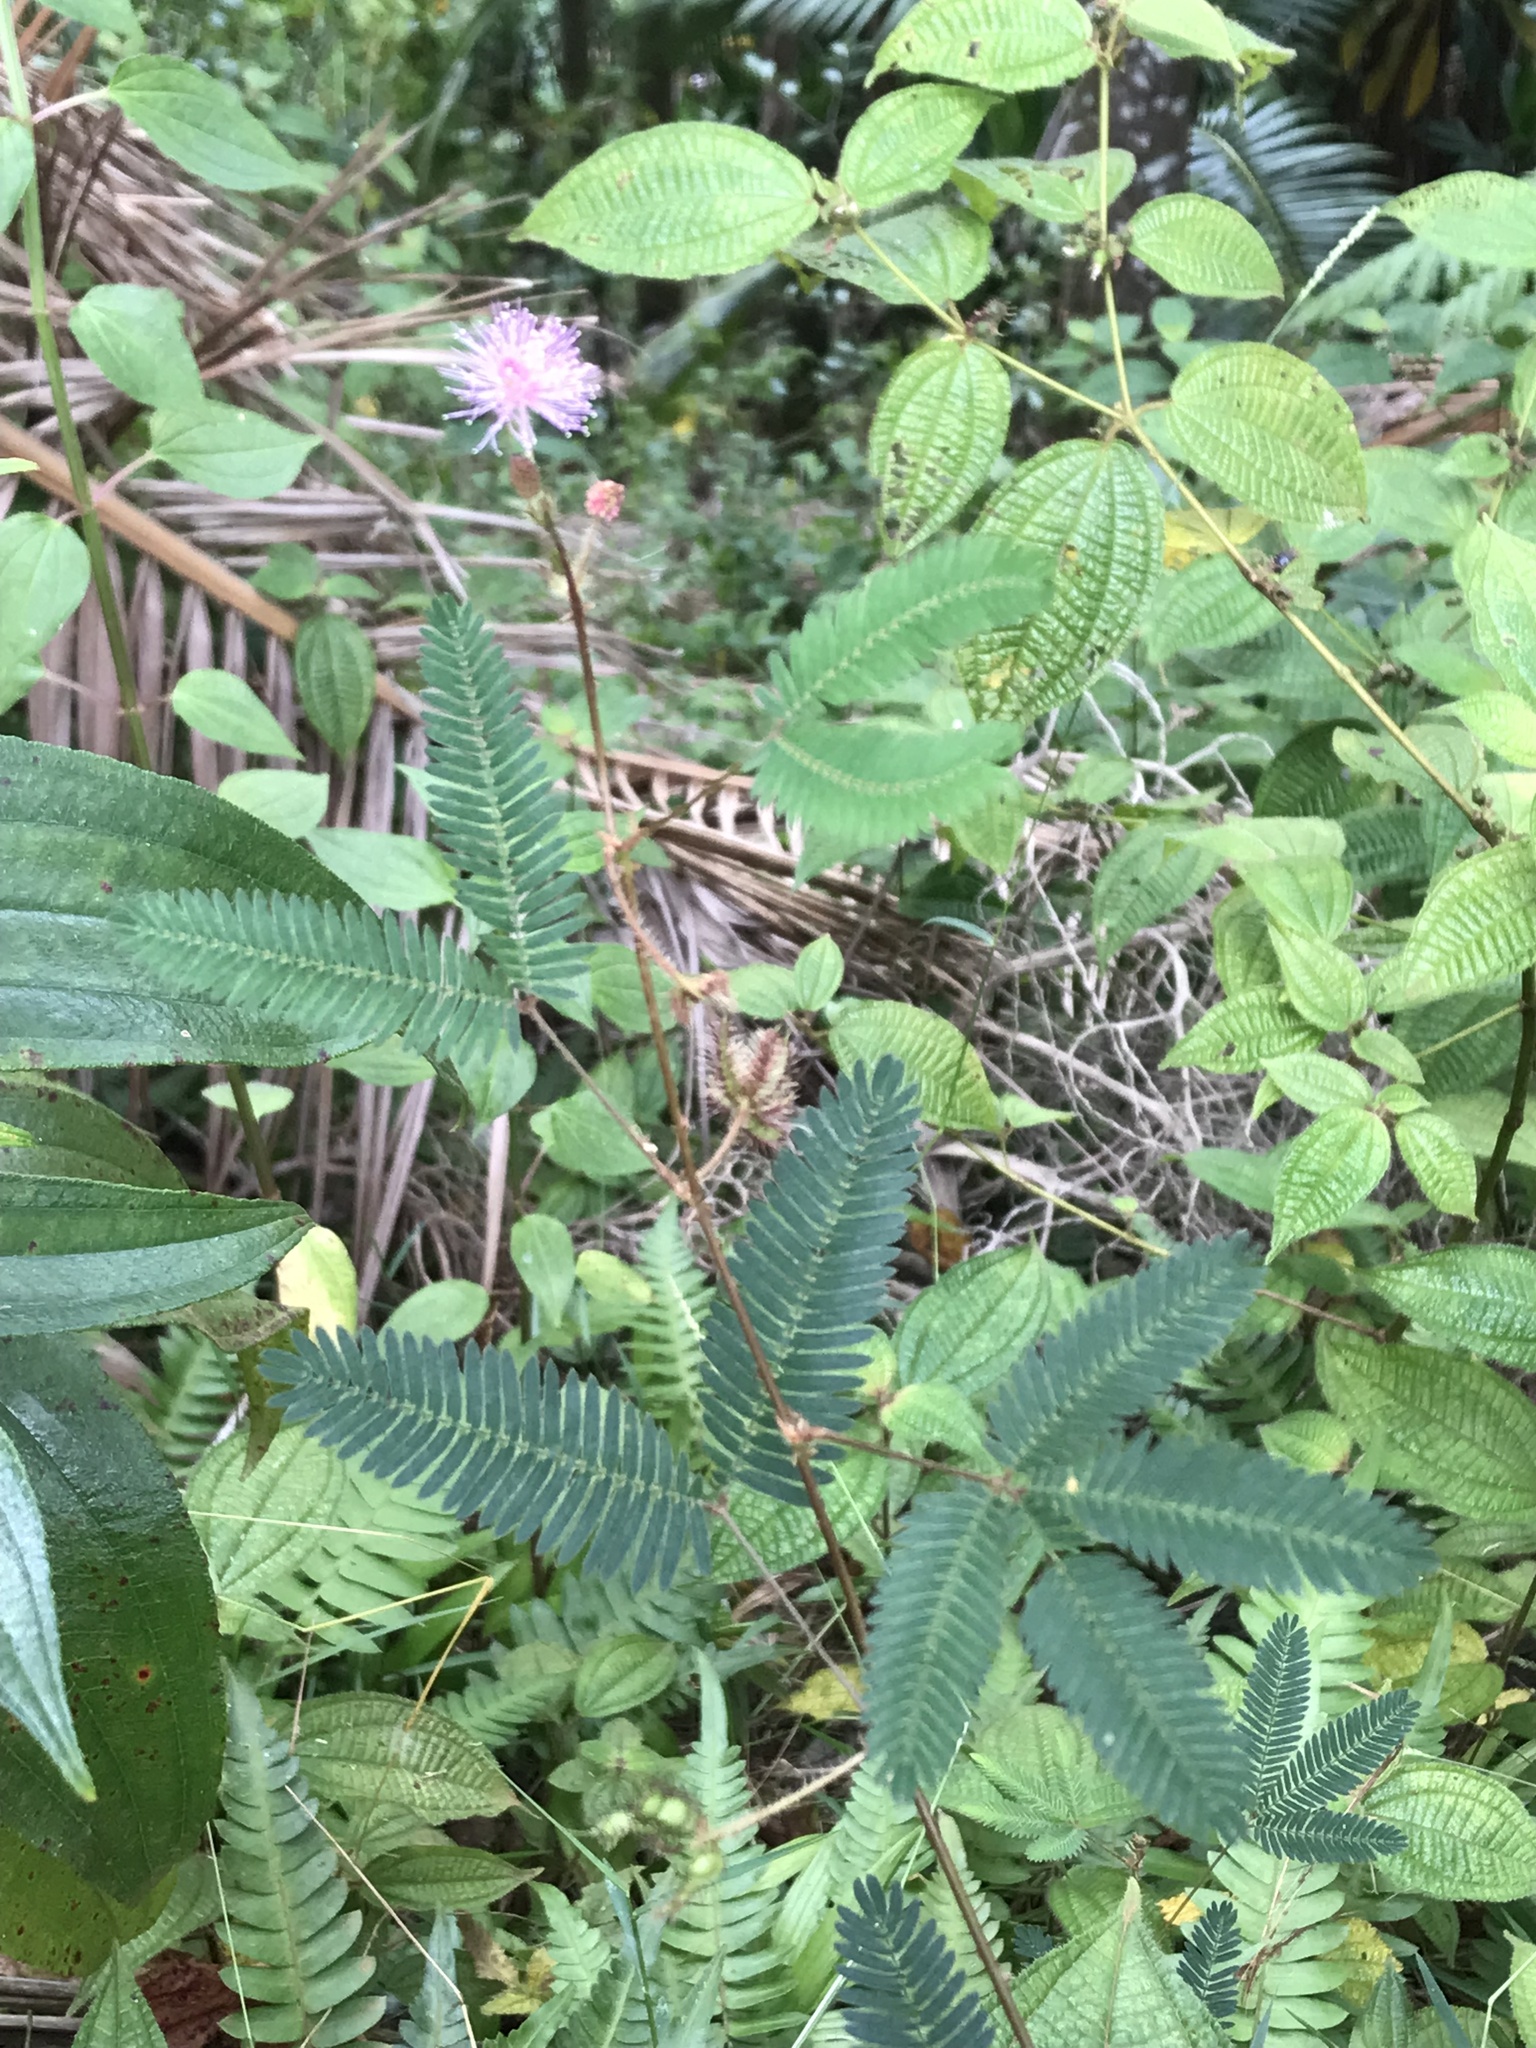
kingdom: Plantae
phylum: Tracheophyta
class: Magnoliopsida
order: Fabales
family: Fabaceae
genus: Mimosa
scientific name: Mimosa pudica
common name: Sensitive plant
